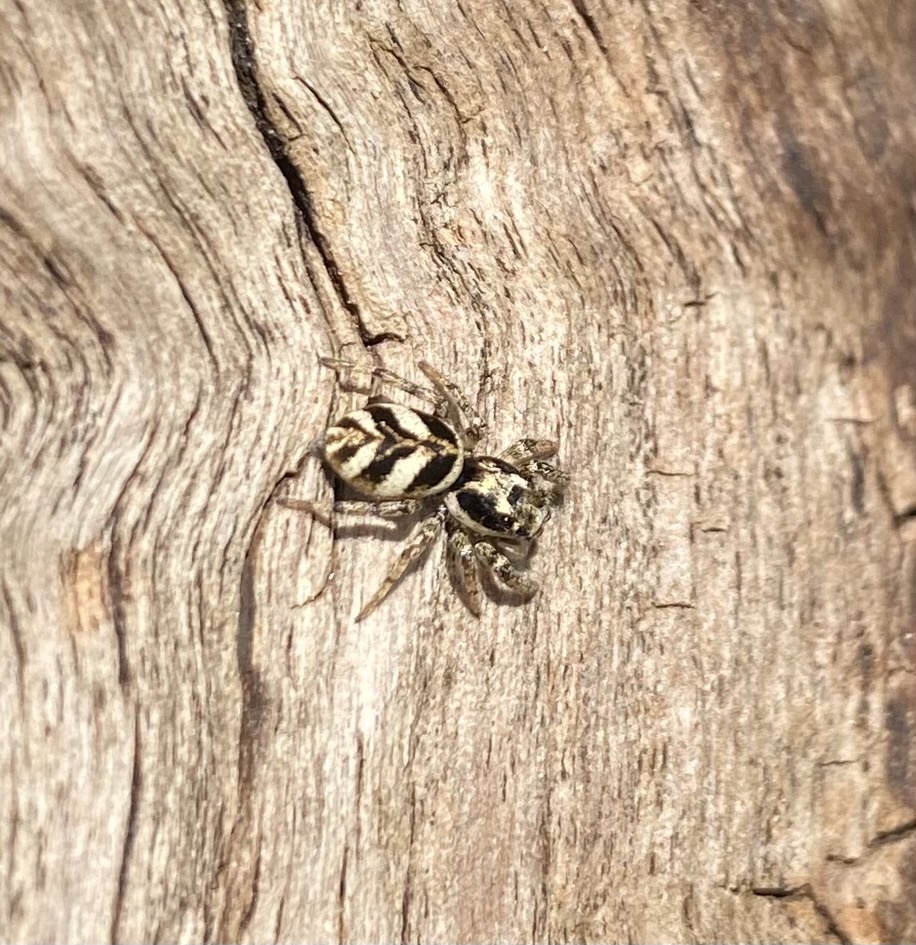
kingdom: Animalia
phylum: Arthropoda
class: Arachnida
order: Araneae
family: Salticidae
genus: Salticus
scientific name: Salticus scenicus
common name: Zebra jumper
